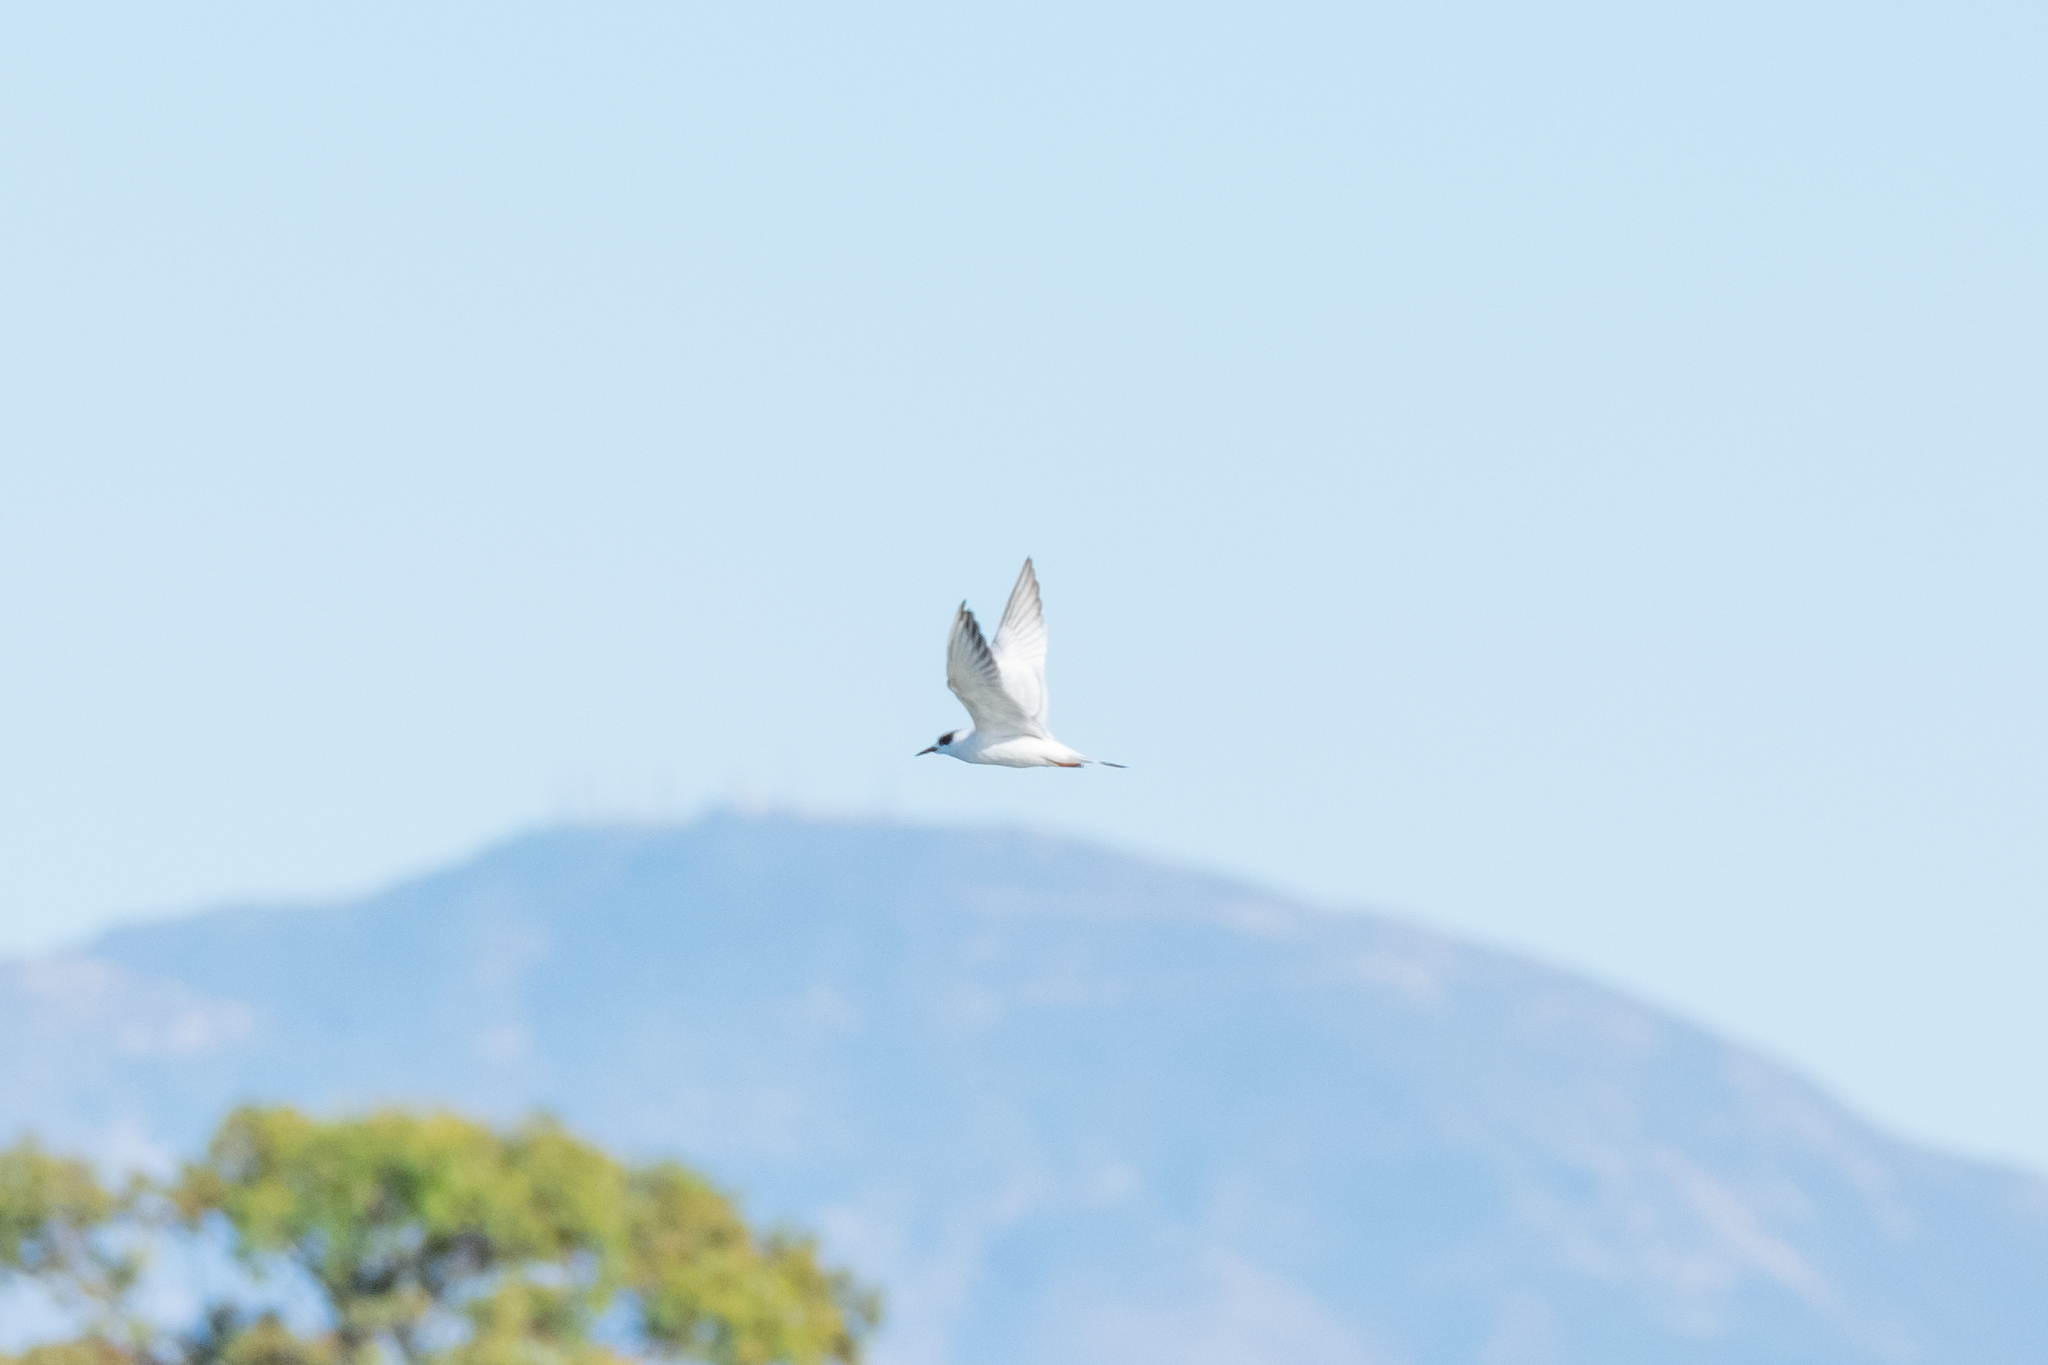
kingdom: Animalia
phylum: Chordata
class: Aves
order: Charadriiformes
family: Laridae
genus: Sterna
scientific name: Sterna forsteri
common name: Forster's tern
